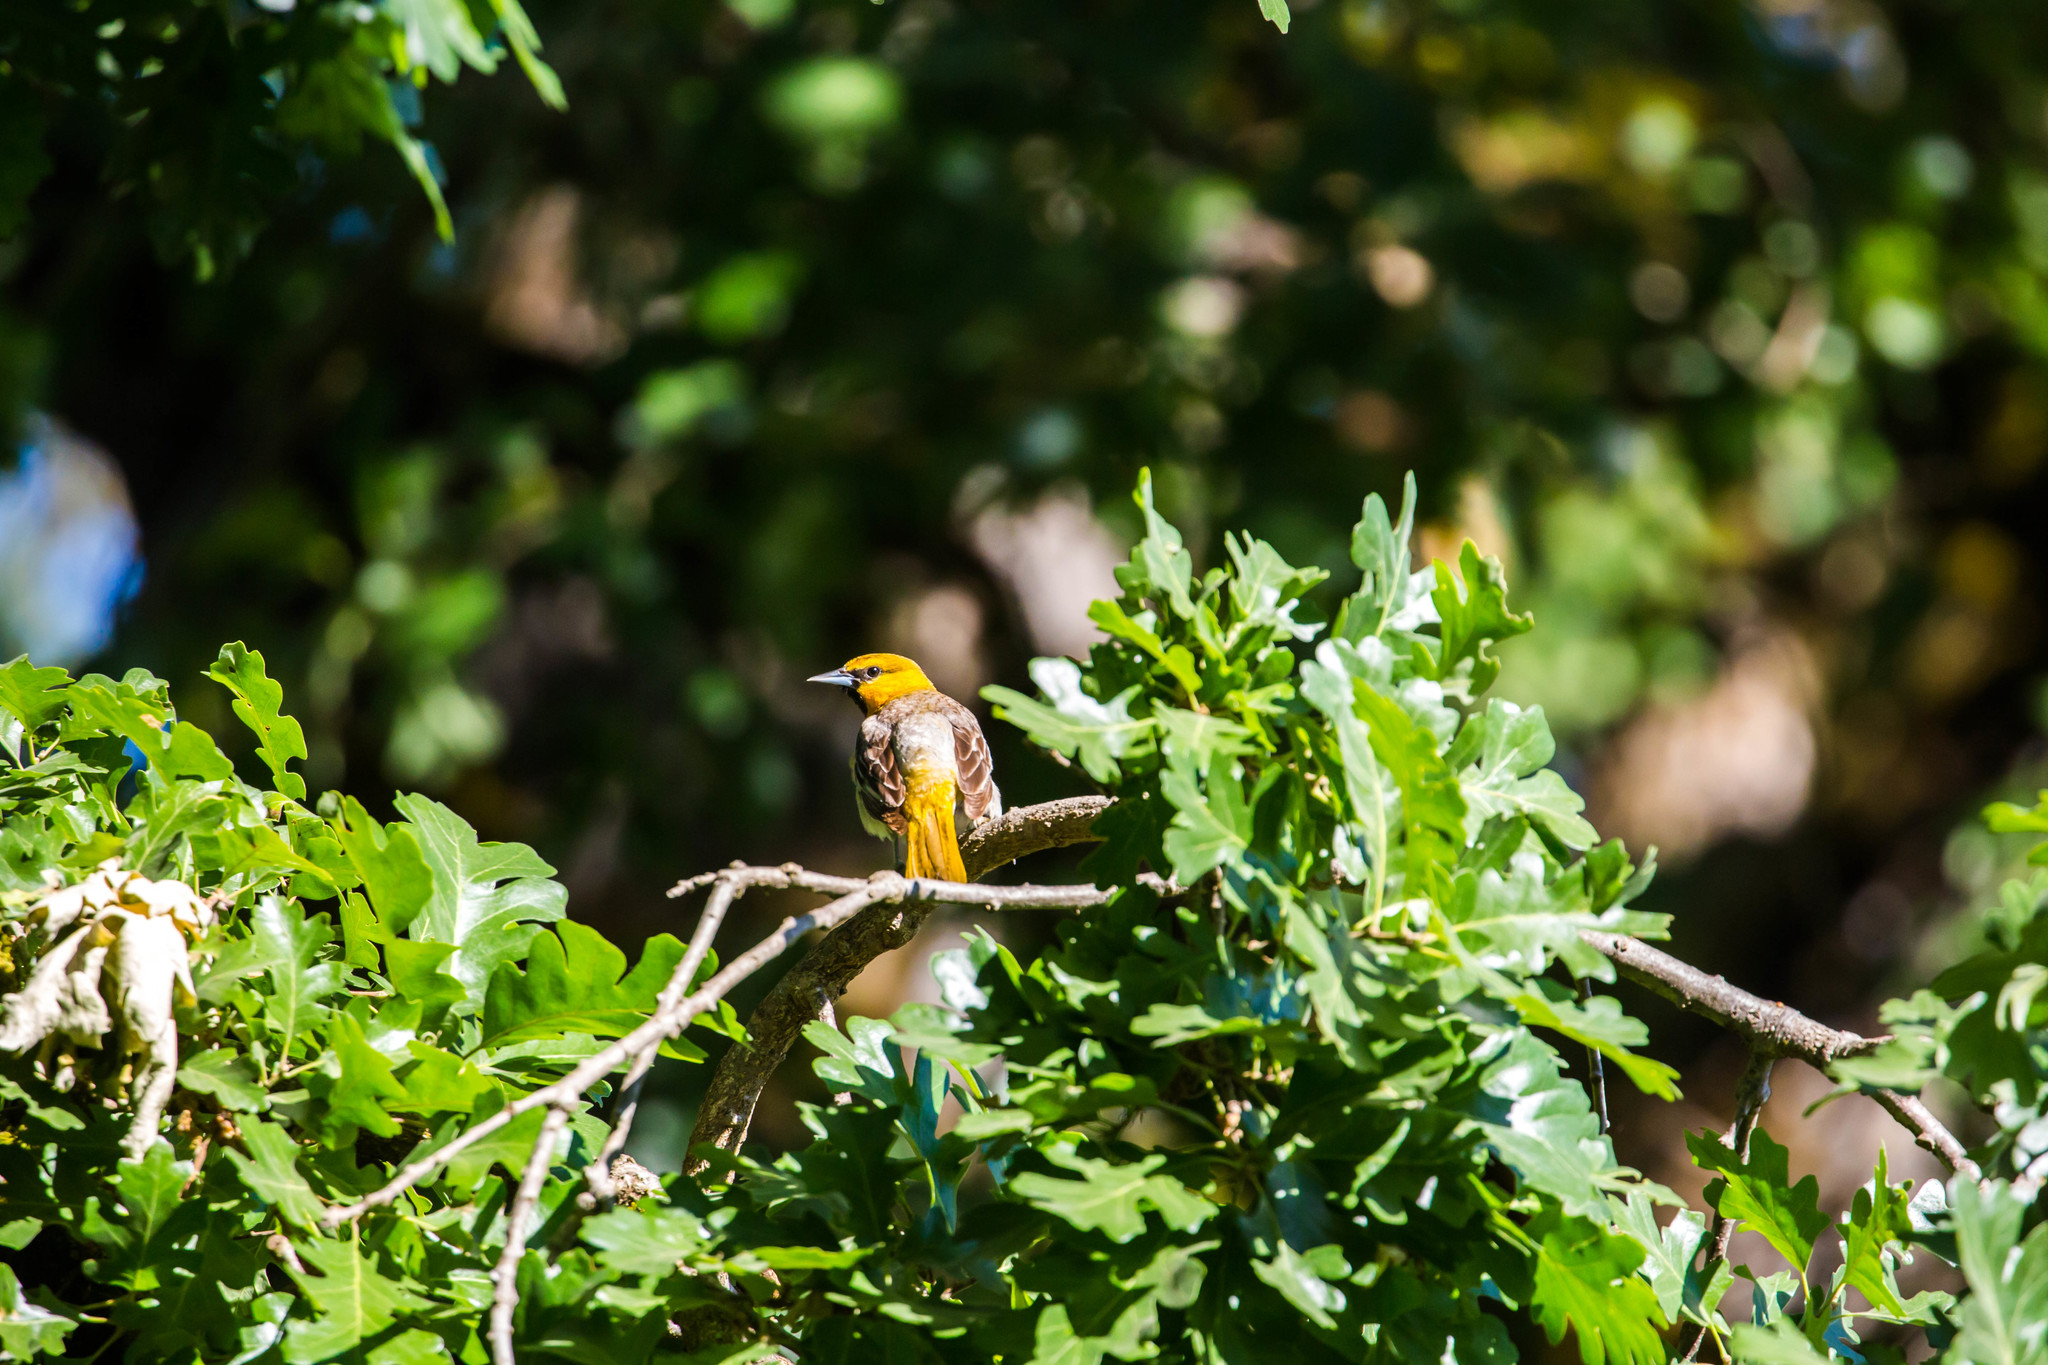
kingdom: Animalia
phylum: Chordata
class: Aves
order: Passeriformes
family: Icteridae
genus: Icterus
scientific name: Icterus bullockii
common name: Bullock's oriole
